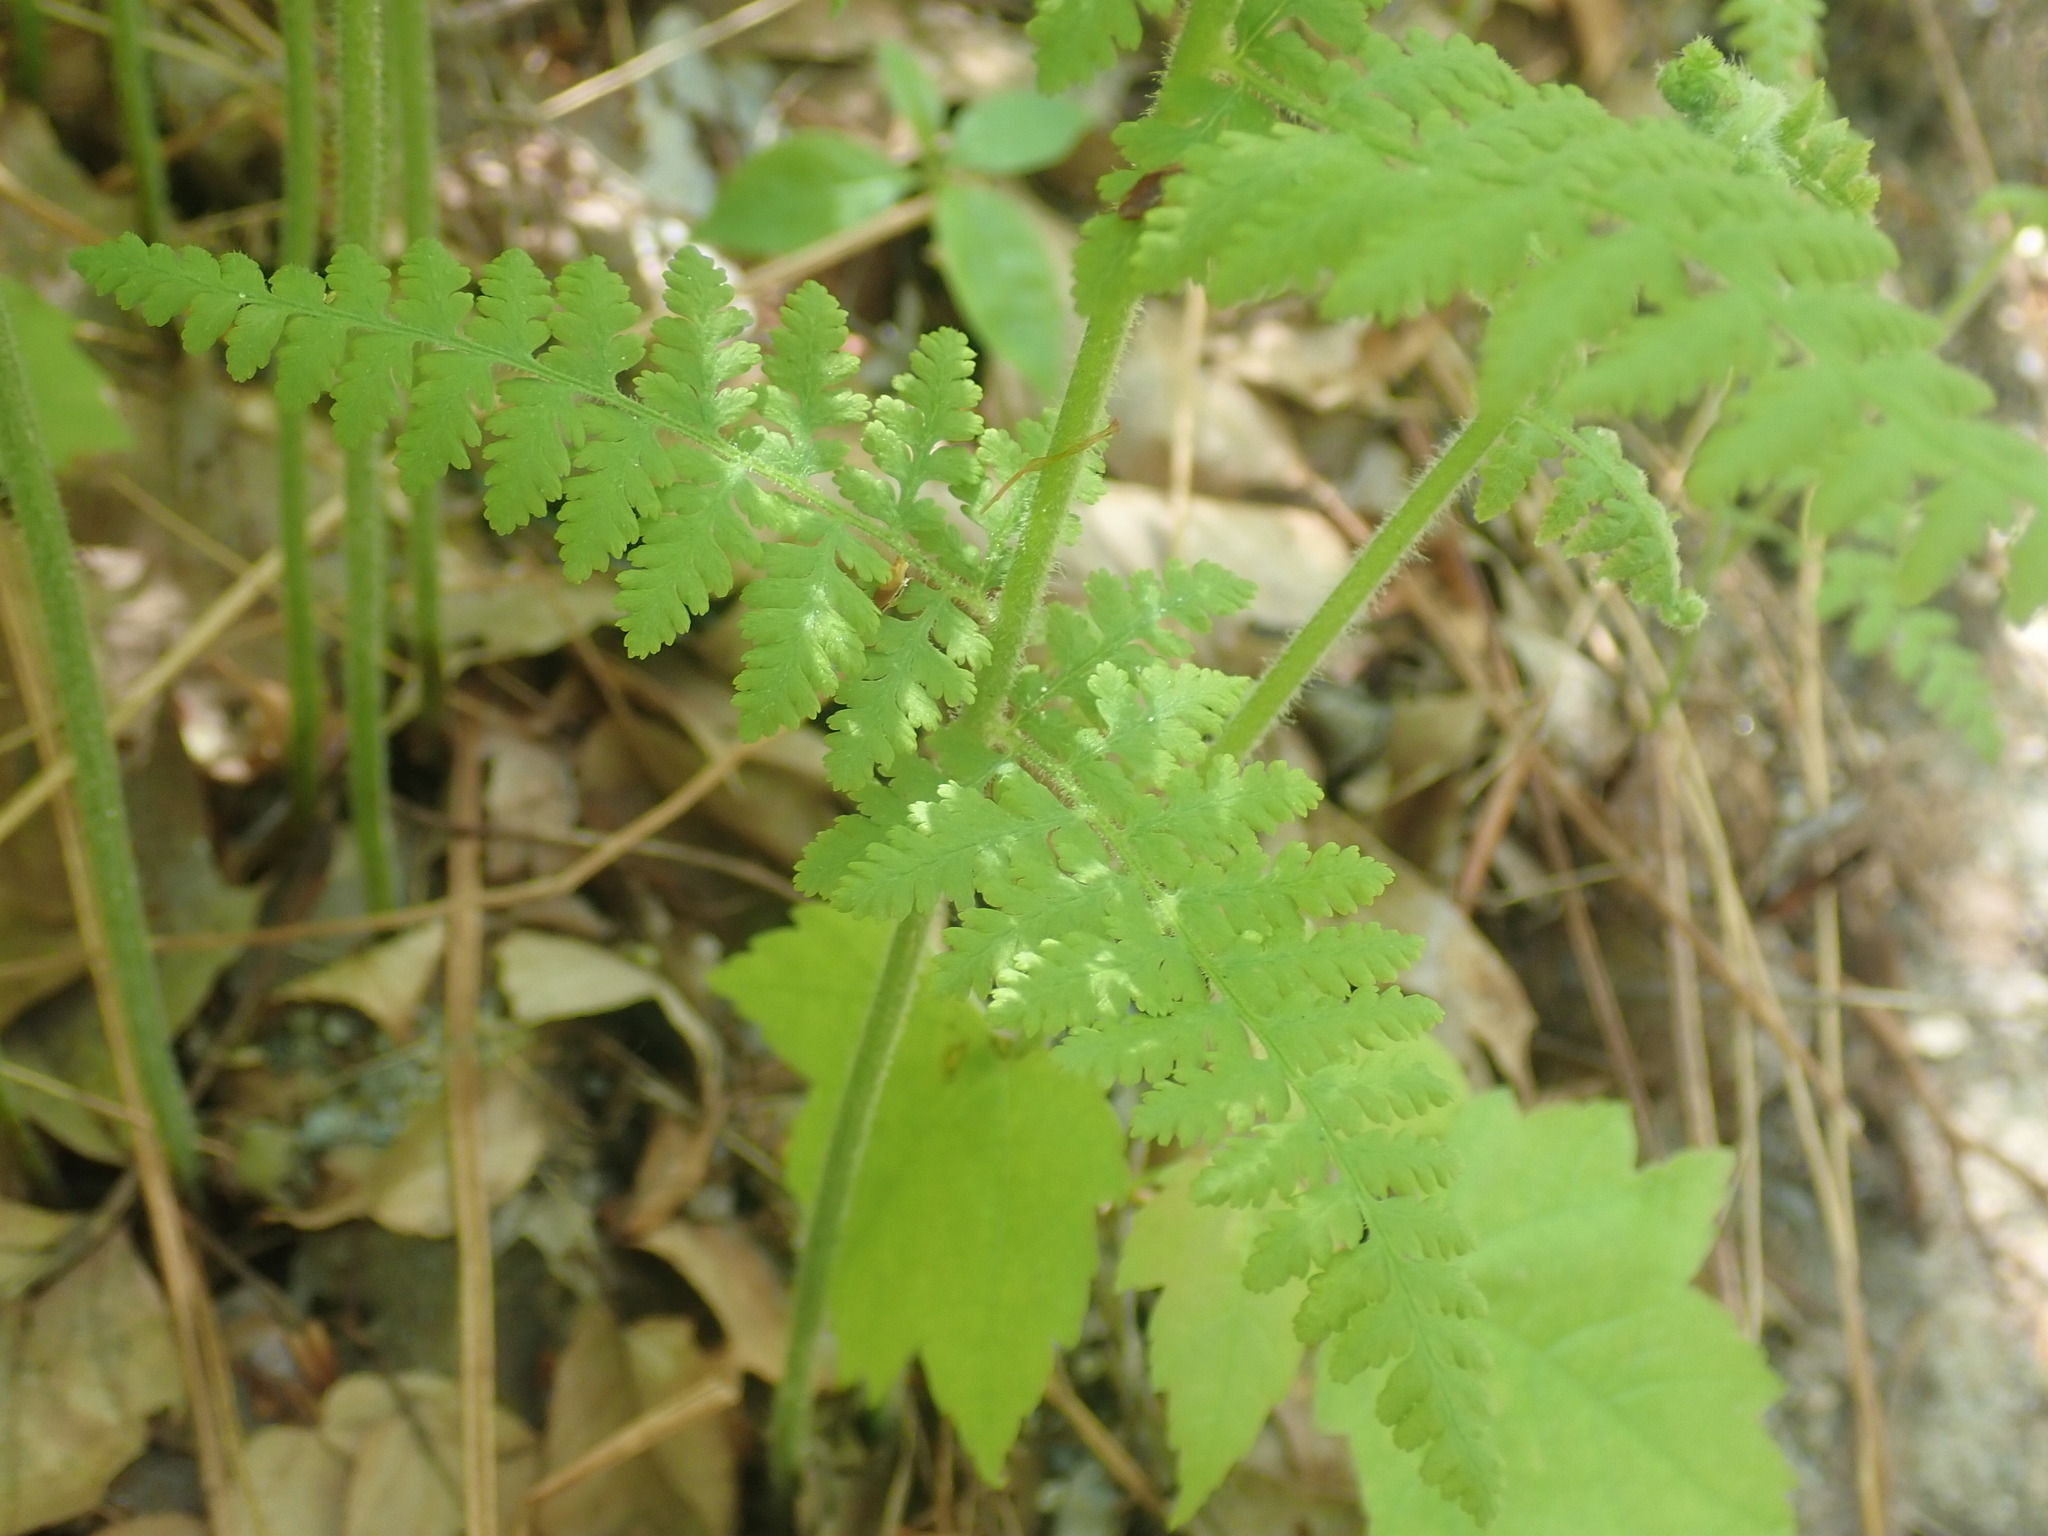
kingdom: Plantae
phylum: Tracheophyta
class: Polypodiopsida
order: Polypodiales
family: Dennstaedtiaceae
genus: Sitobolium
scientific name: Sitobolium punctilobum
